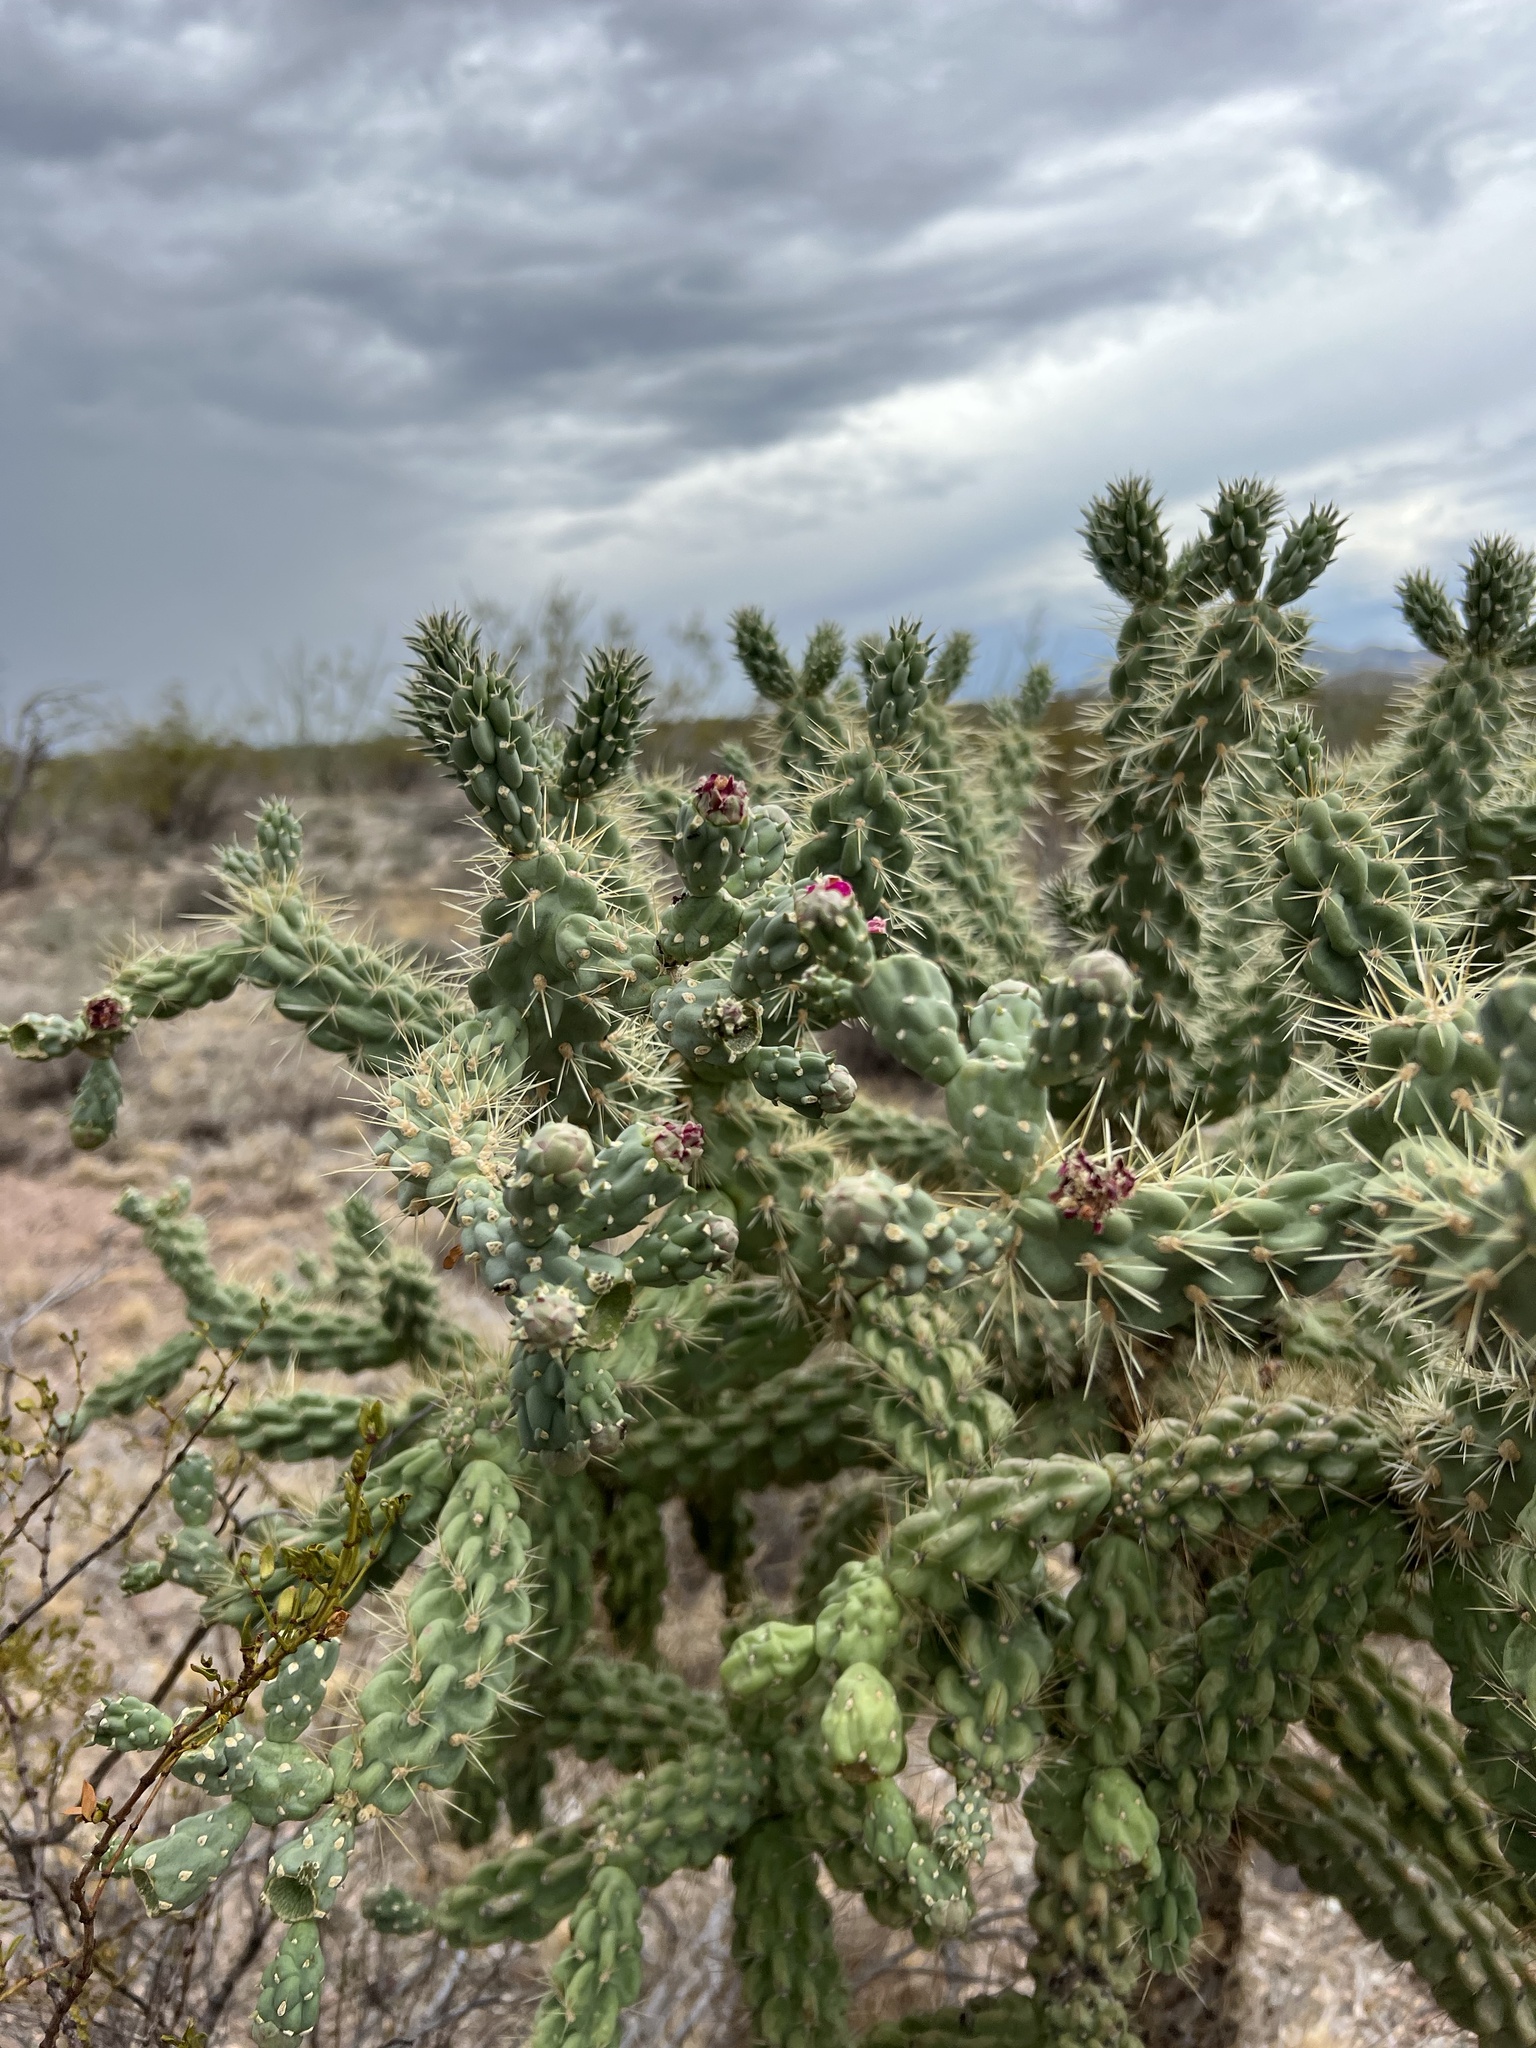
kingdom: Plantae
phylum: Tracheophyta
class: Magnoliopsida
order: Caryophyllales
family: Cactaceae
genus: Cylindropuntia
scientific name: Cylindropuntia fulgida
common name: Jumping cholla
